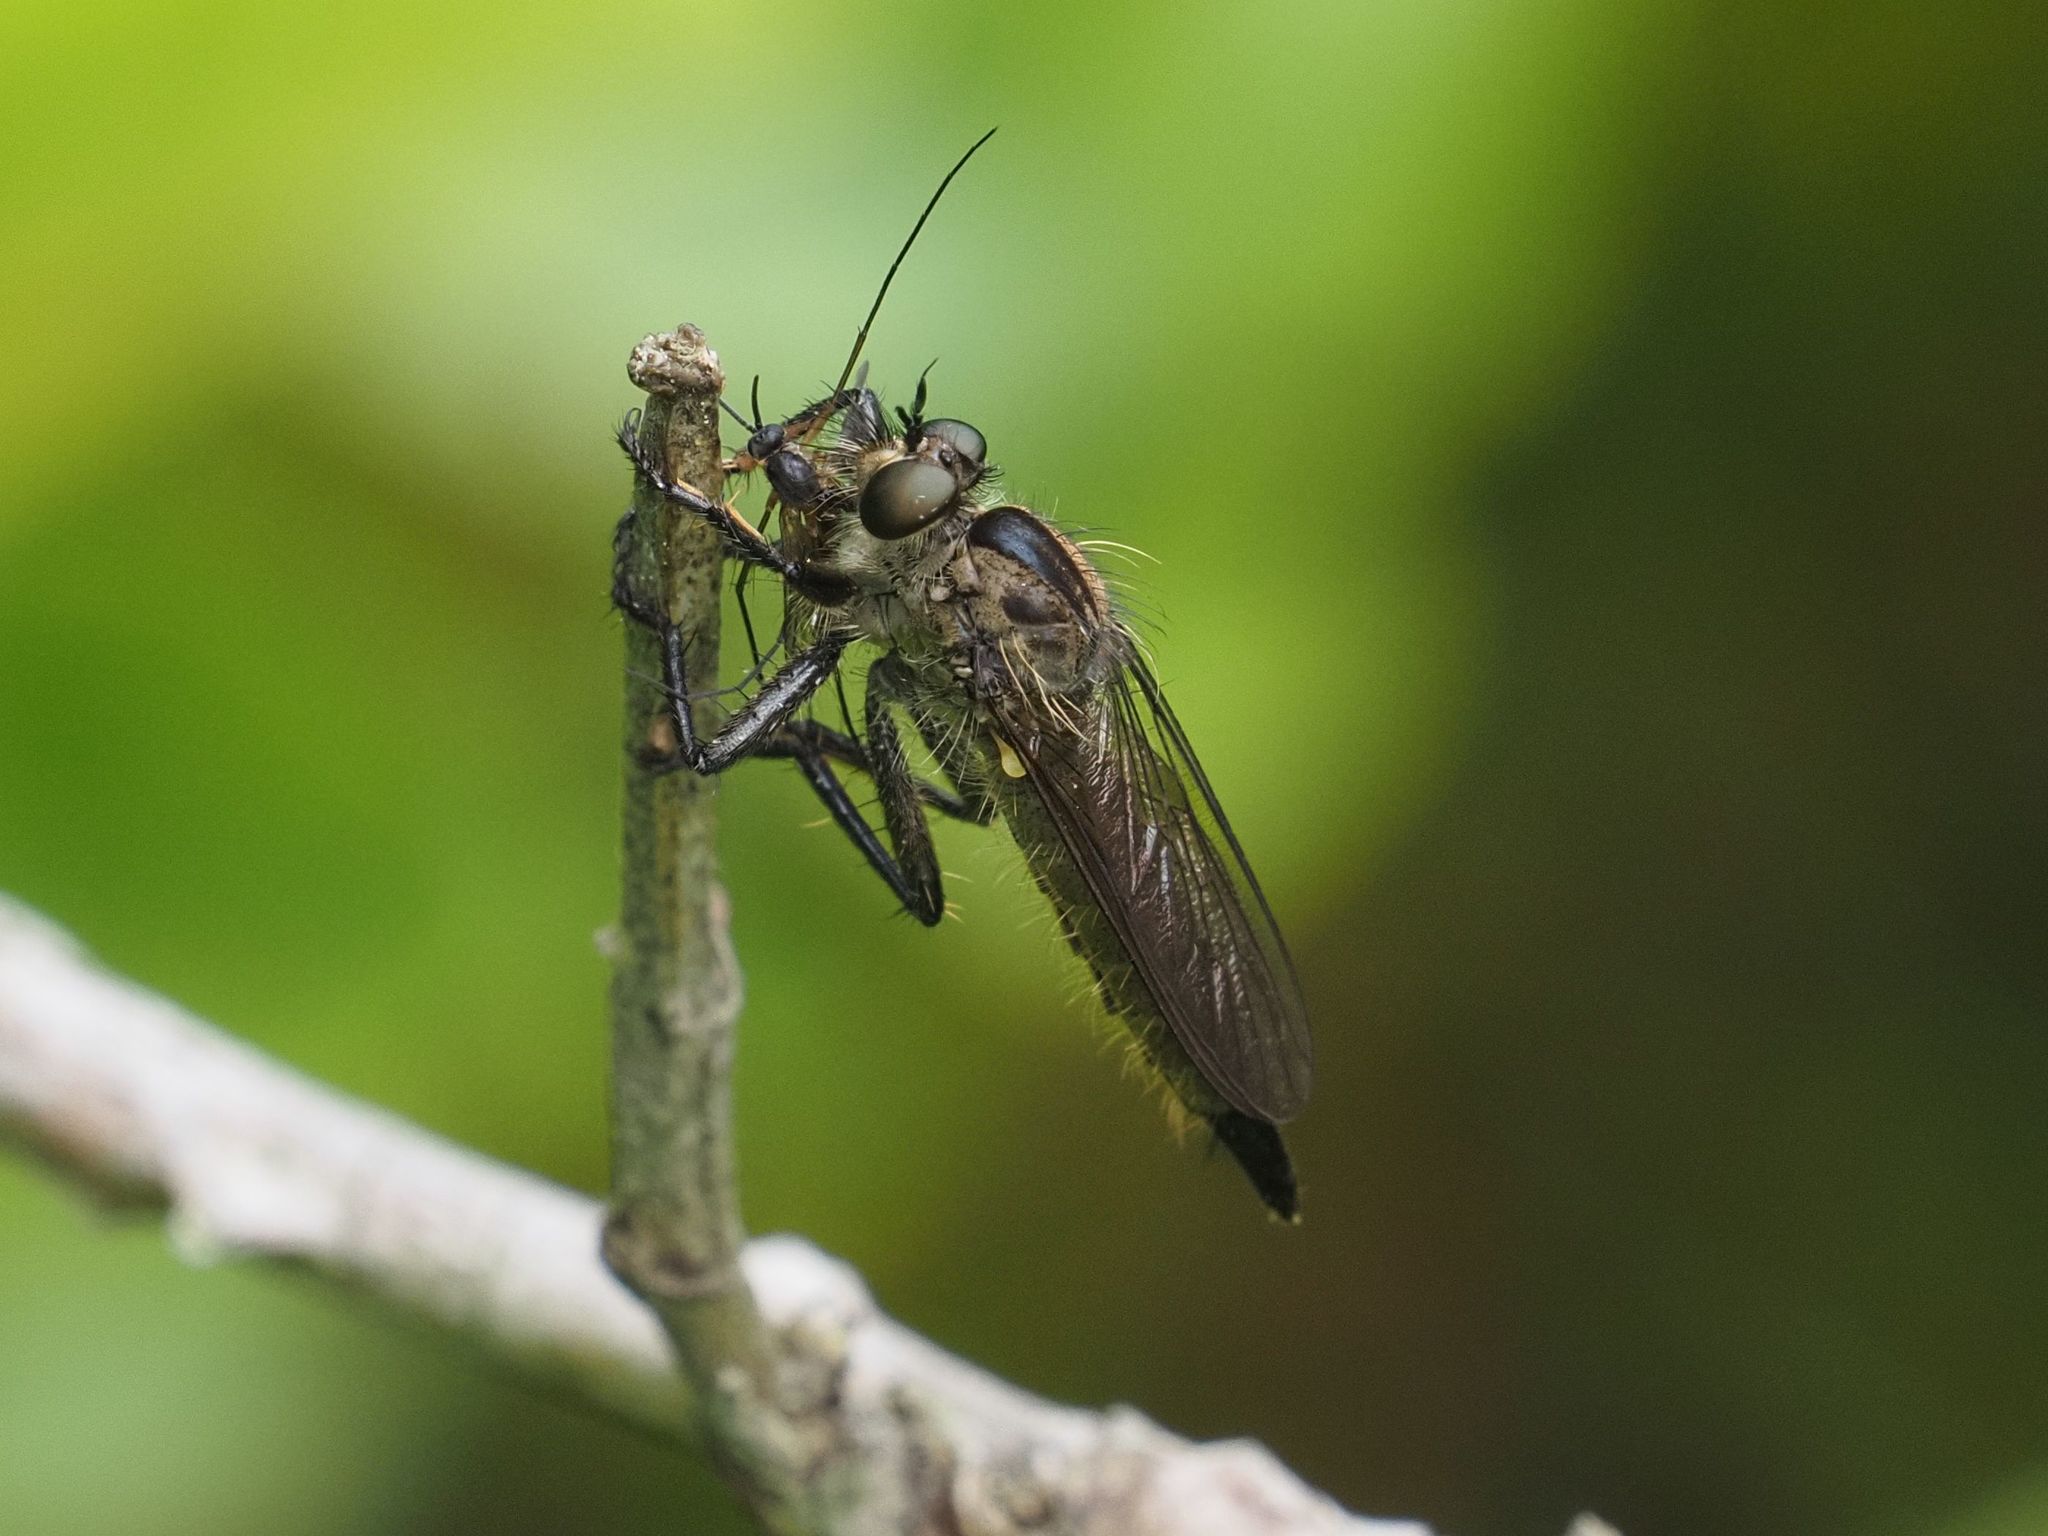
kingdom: Animalia
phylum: Arthropoda
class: Insecta
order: Diptera
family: Asilidae
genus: Didysmachus
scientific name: Didysmachus picipes
